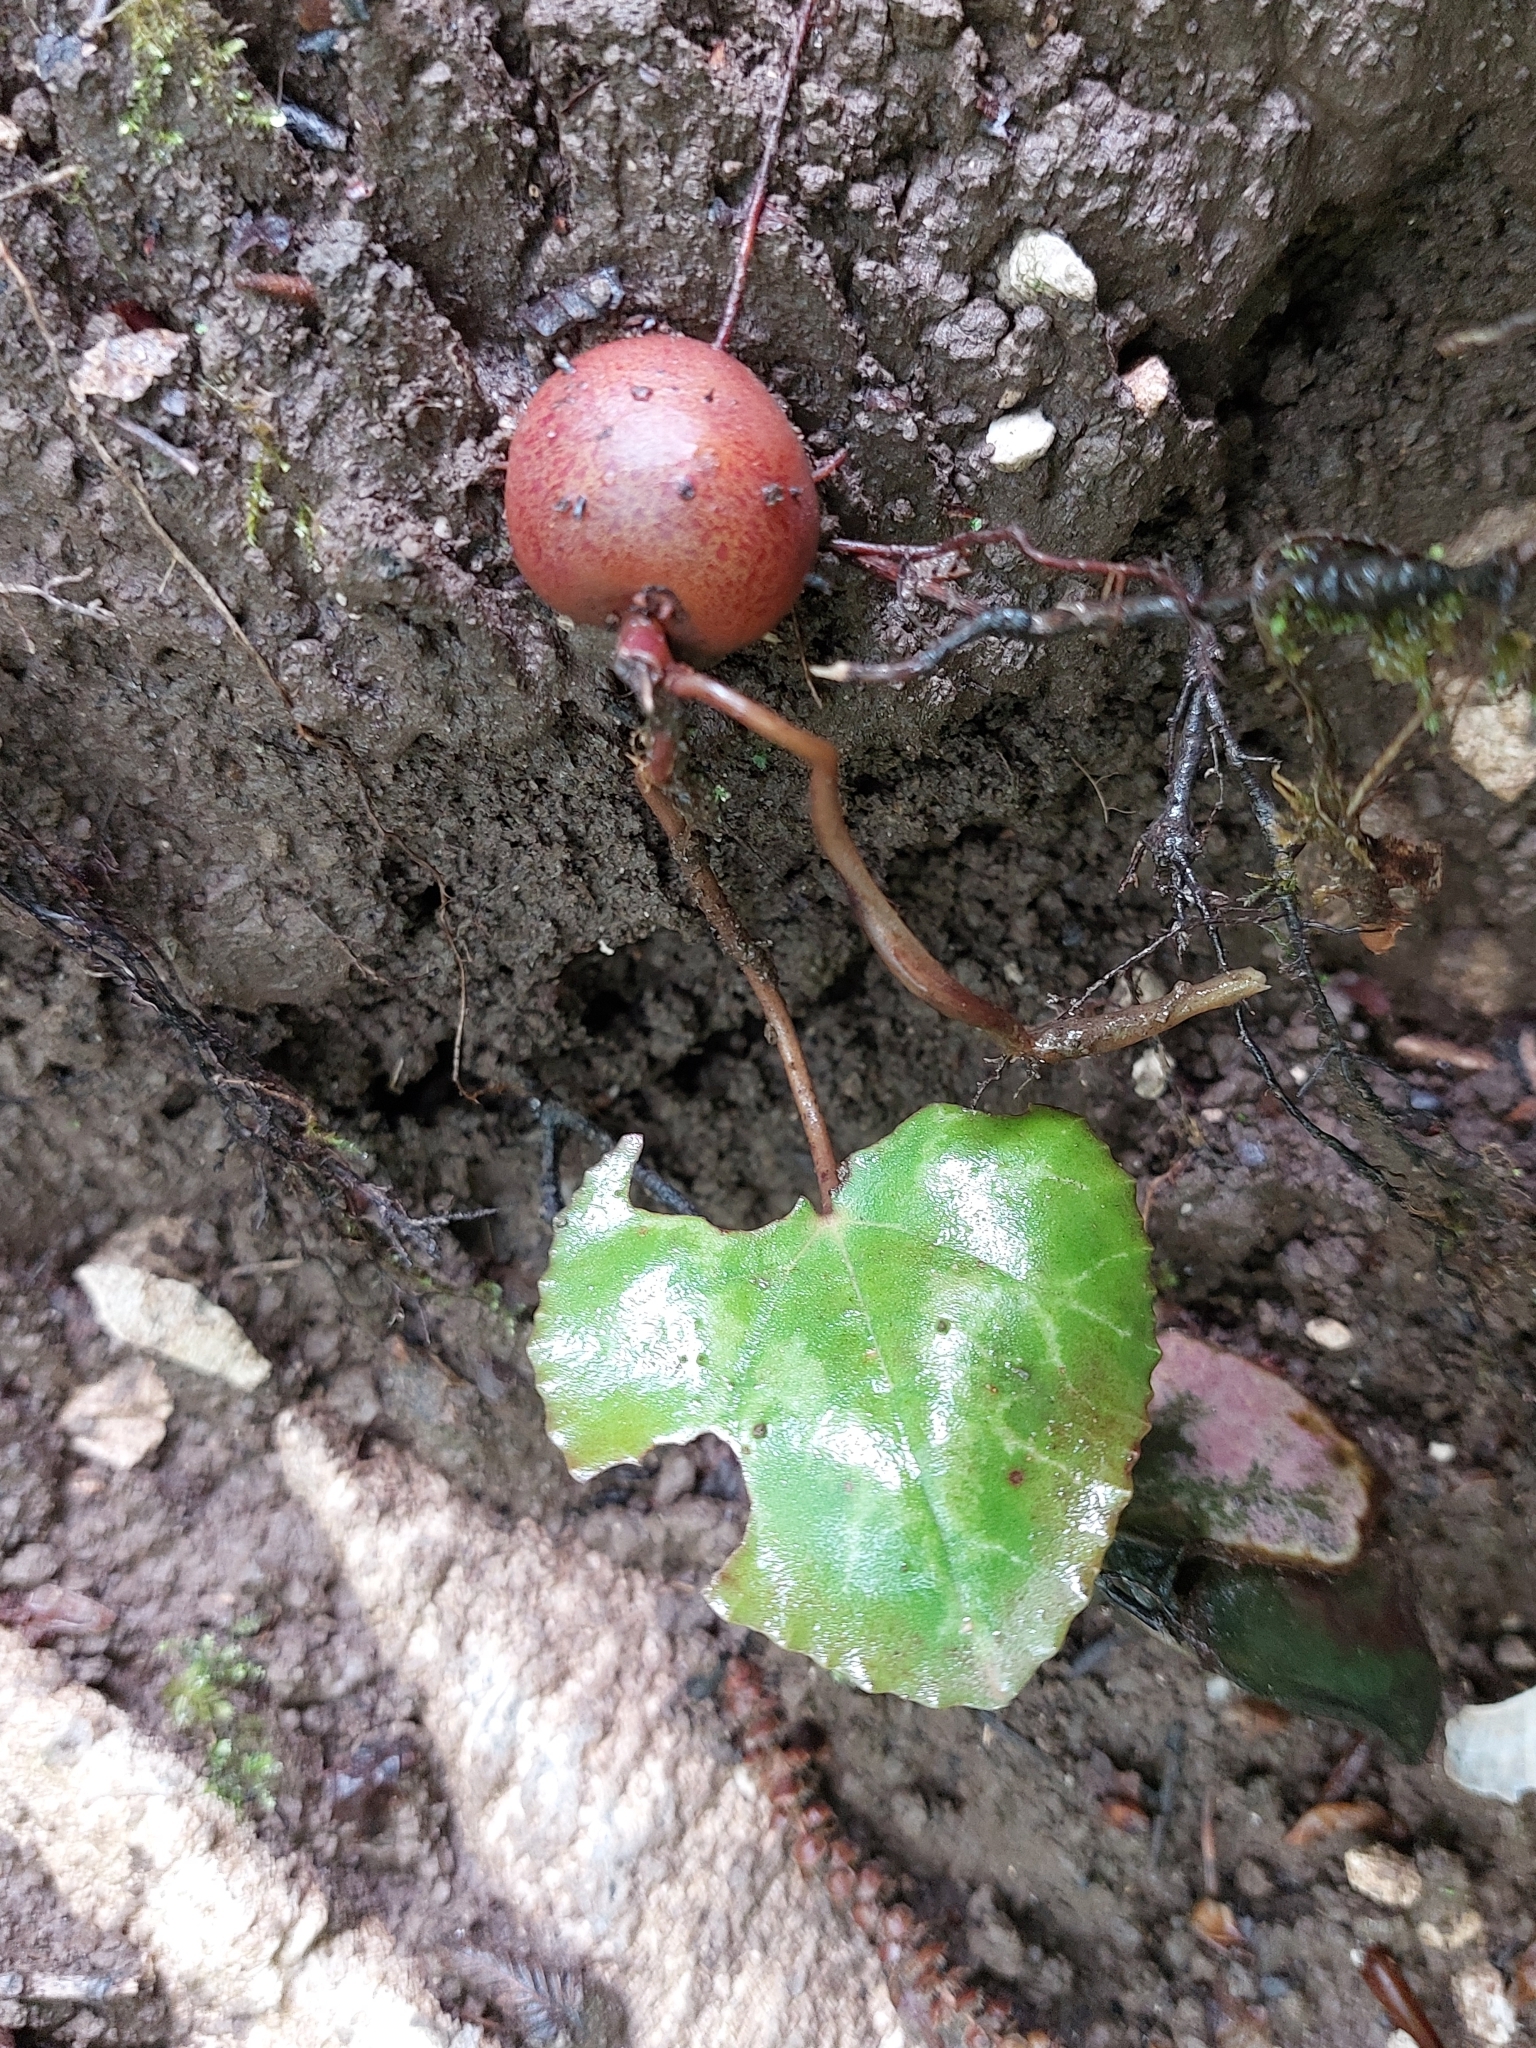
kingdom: Plantae
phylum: Tracheophyta
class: Magnoliopsida
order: Ericales
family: Primulaceae
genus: Cyclamen
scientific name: Cyclamen purpurascens
